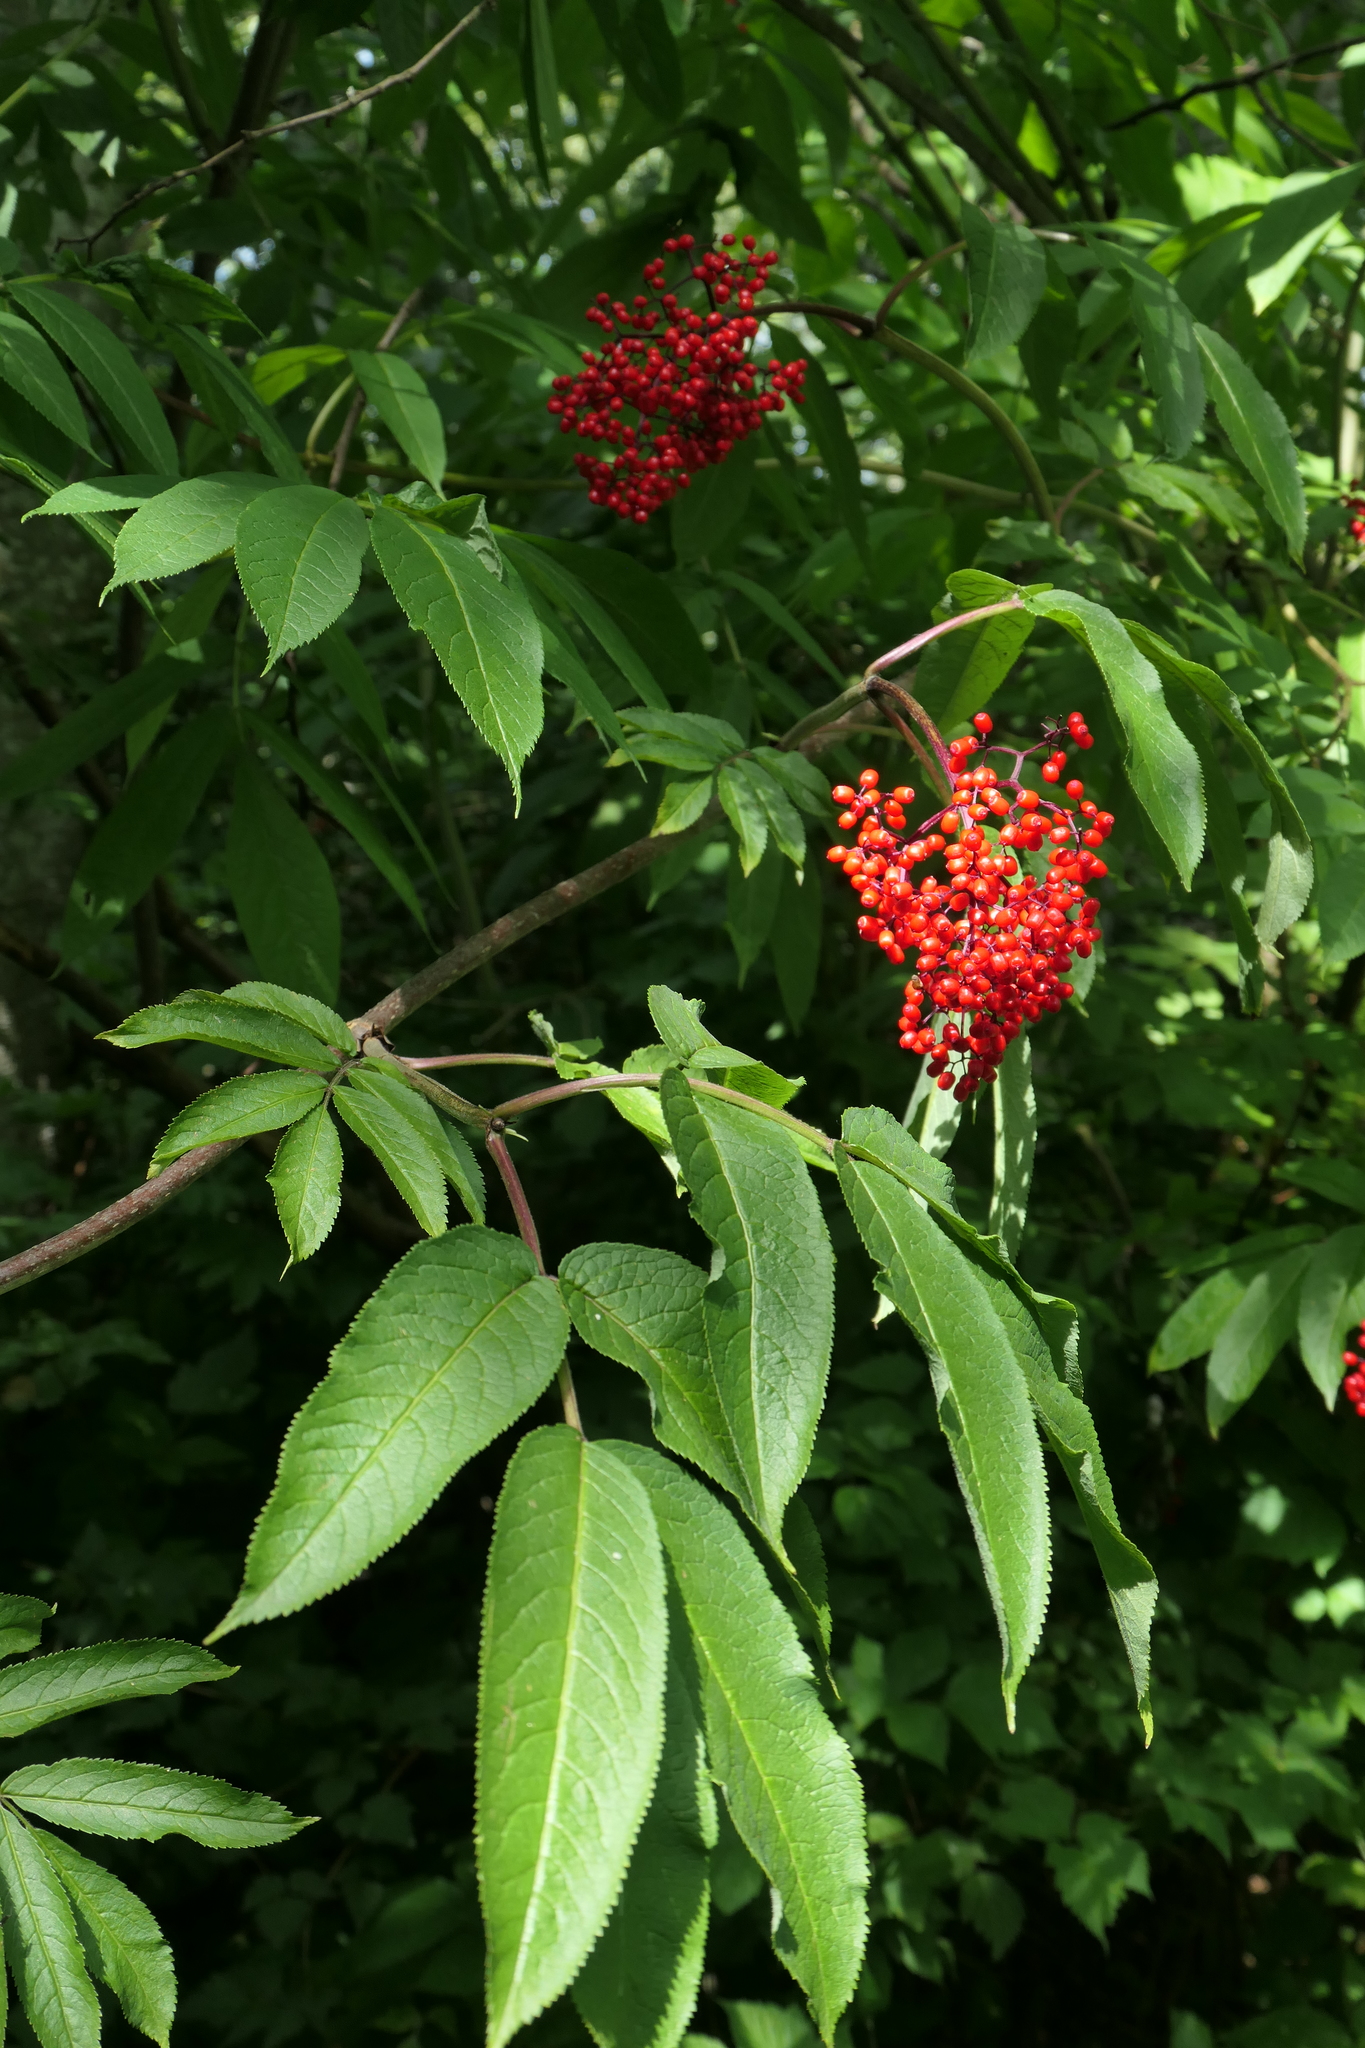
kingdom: Plantae
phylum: Tracheophyta
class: Magnoliopsida
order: Dipsacales
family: Viburnaceae
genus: Sambucus
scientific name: Sambucus racemosa
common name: Red-berried elder
